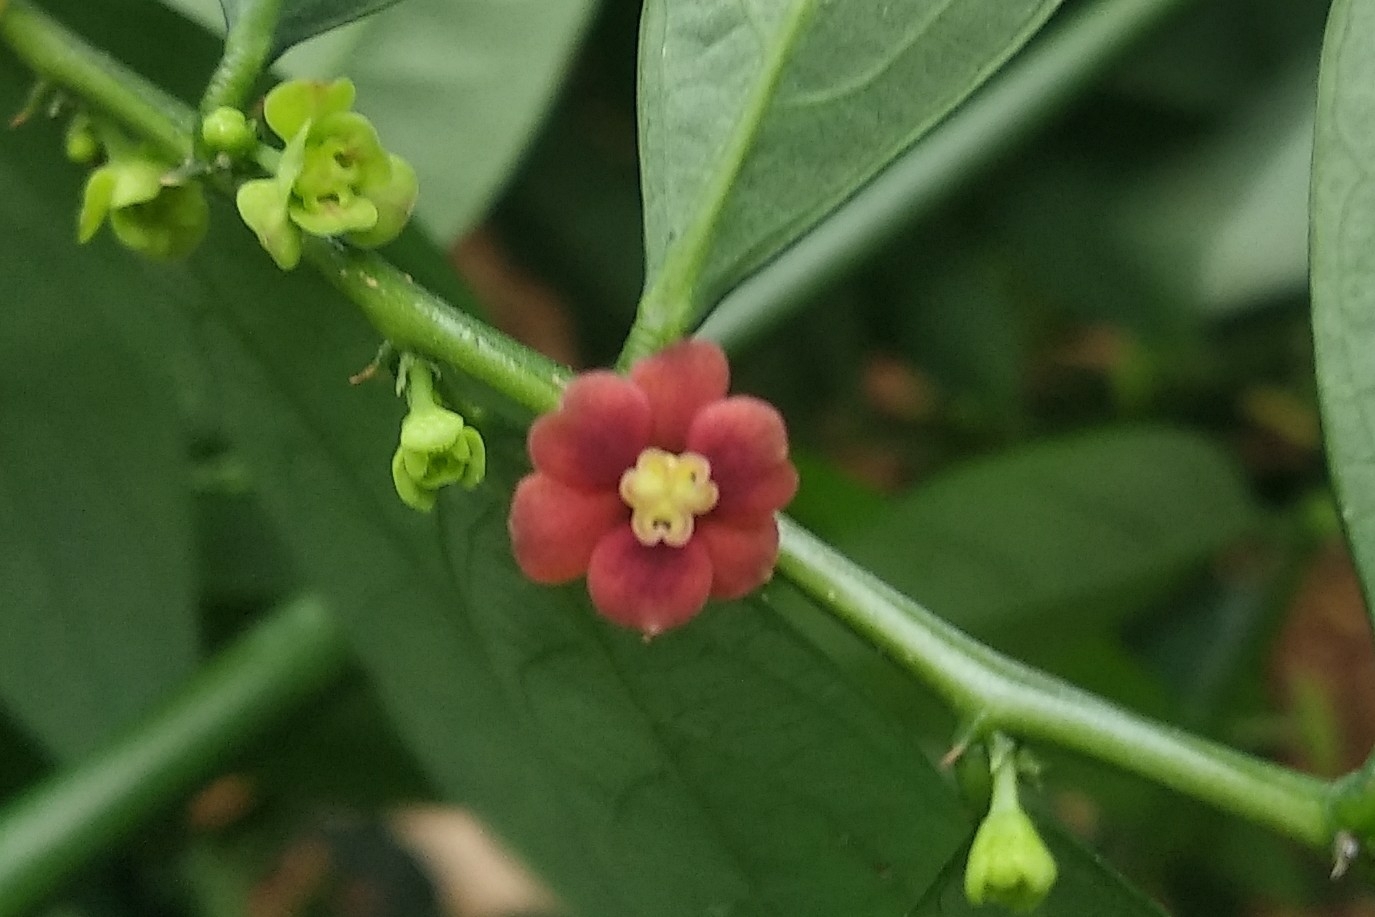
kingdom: Plantae
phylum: Tracheophyta
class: Magnoliopsida
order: Malpighiales
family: Phyllanthaceae
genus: Breynia
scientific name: Breynia androgyna
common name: Star gooseberry
